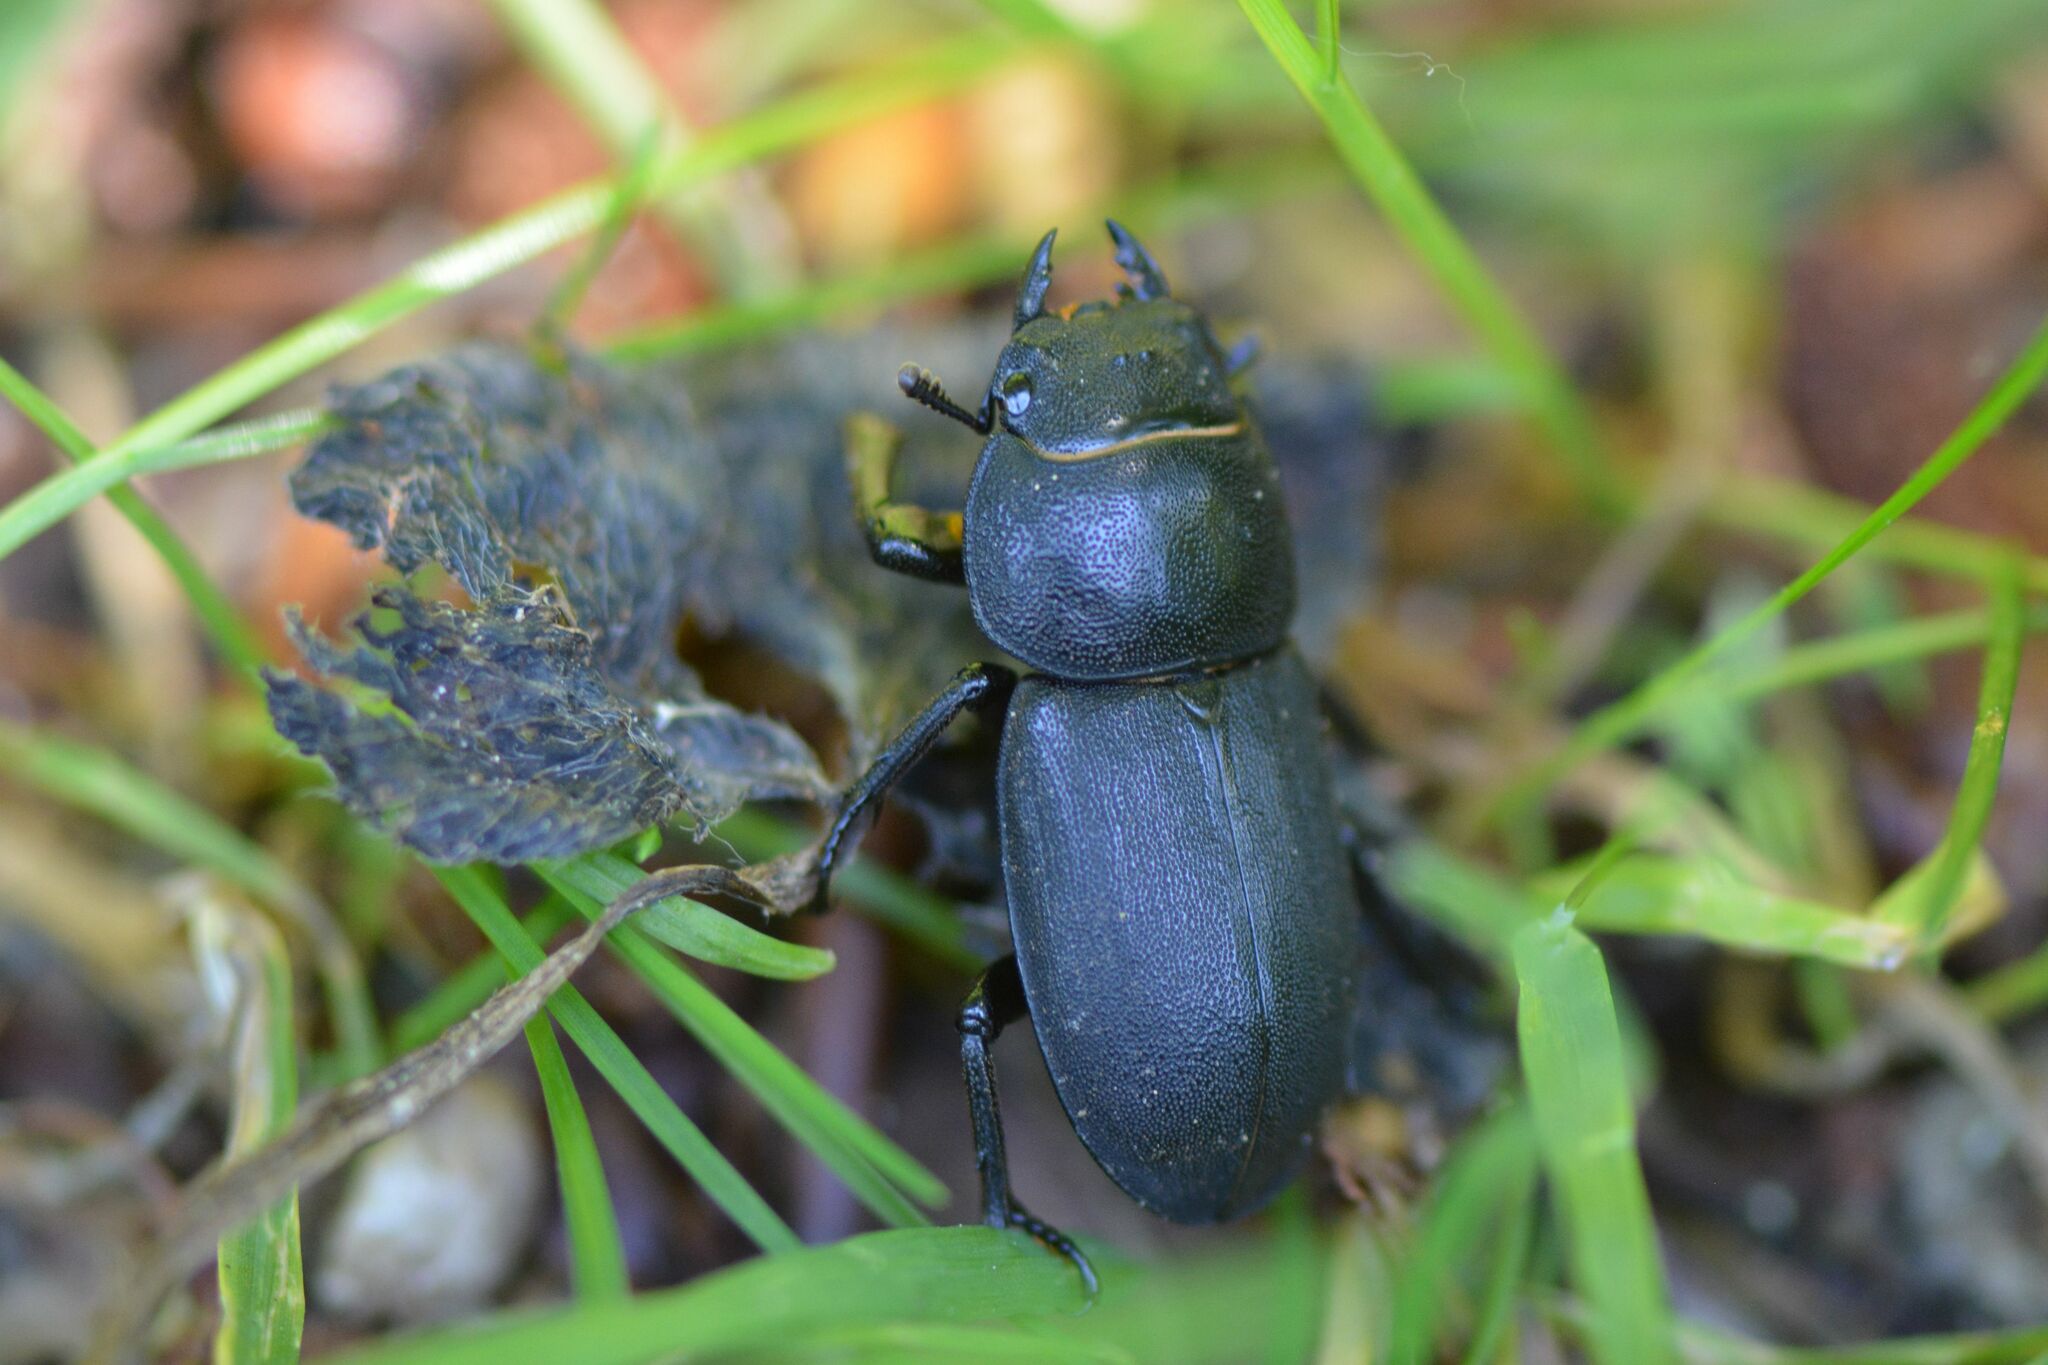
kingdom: Animalia
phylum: Arthropoda
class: Insecta
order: Coleoptera
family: Lucanidae
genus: Dorcus
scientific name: Dorcus parallelipipedus
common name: Lesser stag beetle
